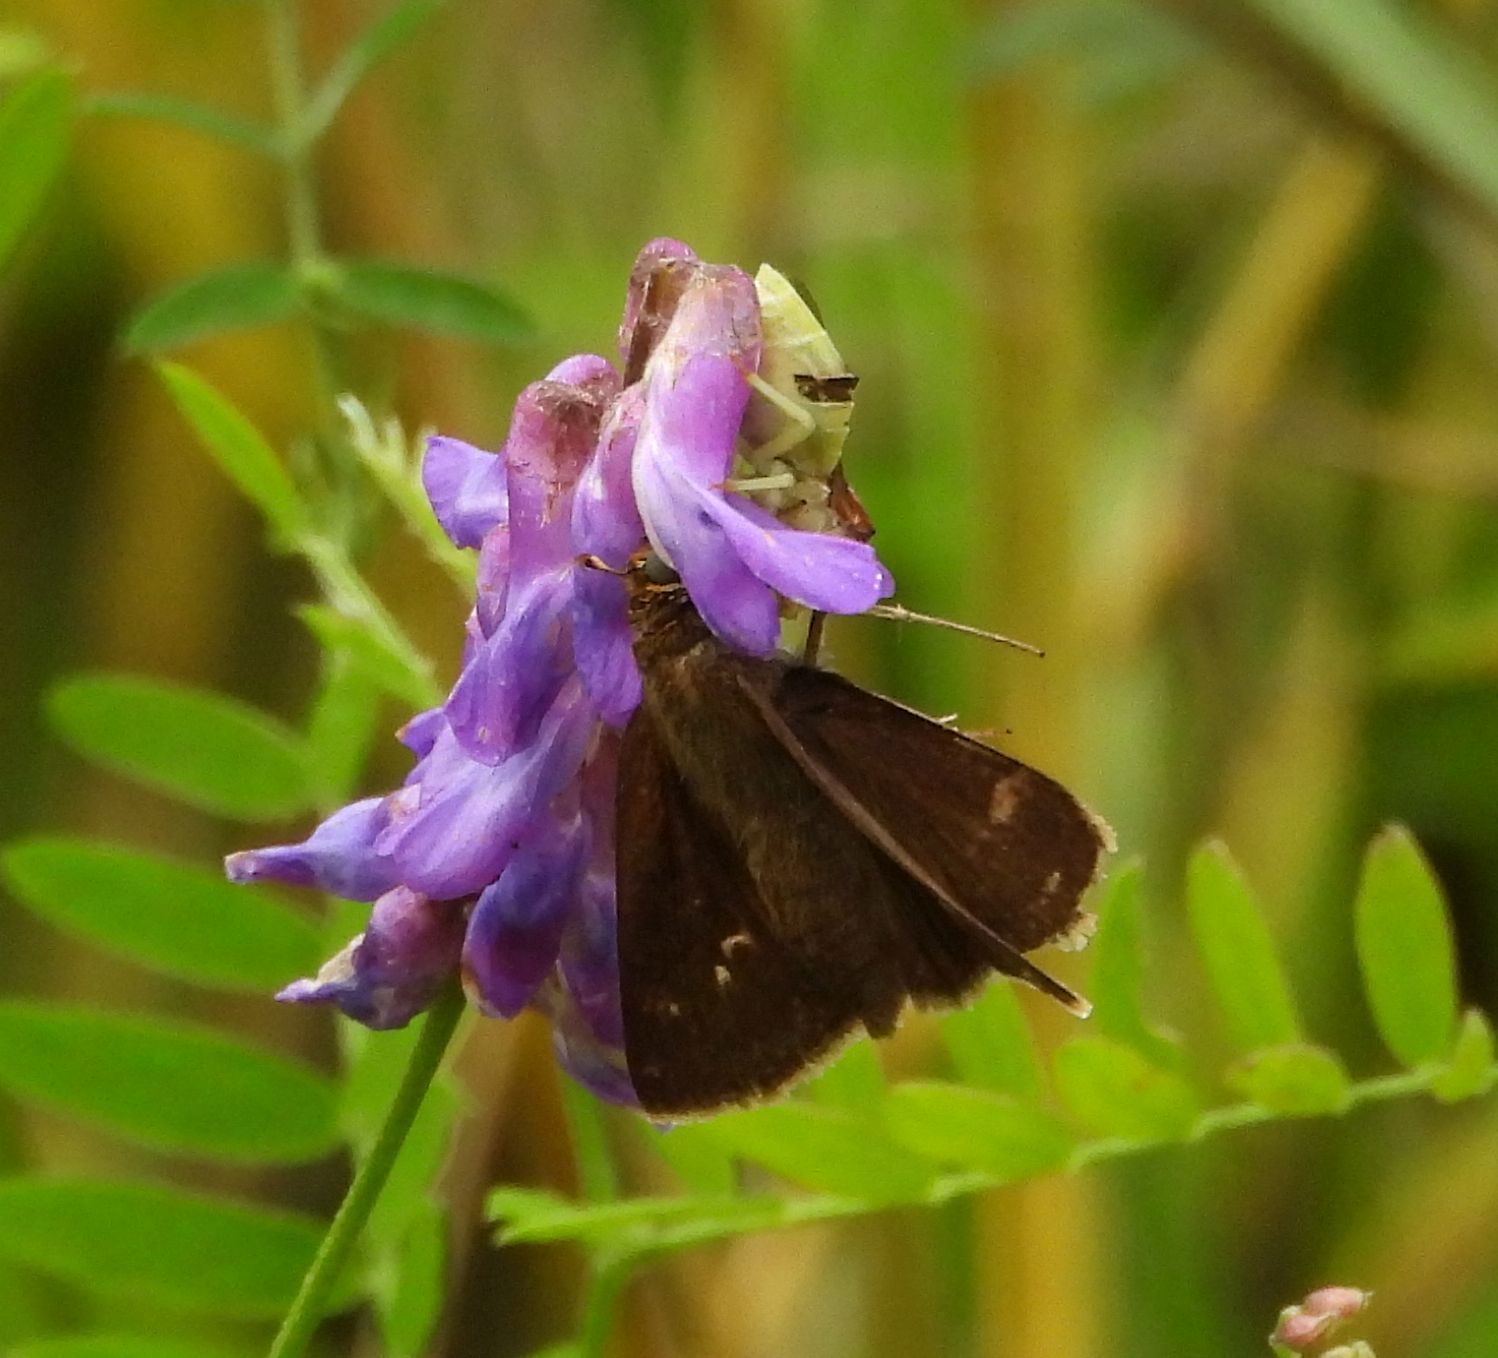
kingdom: Animalia
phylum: Arthropoda
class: Insecta
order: Lepidoptera
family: Hesperiidae
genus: Euphyes
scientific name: Euphyes vestris
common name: Dun skipper
